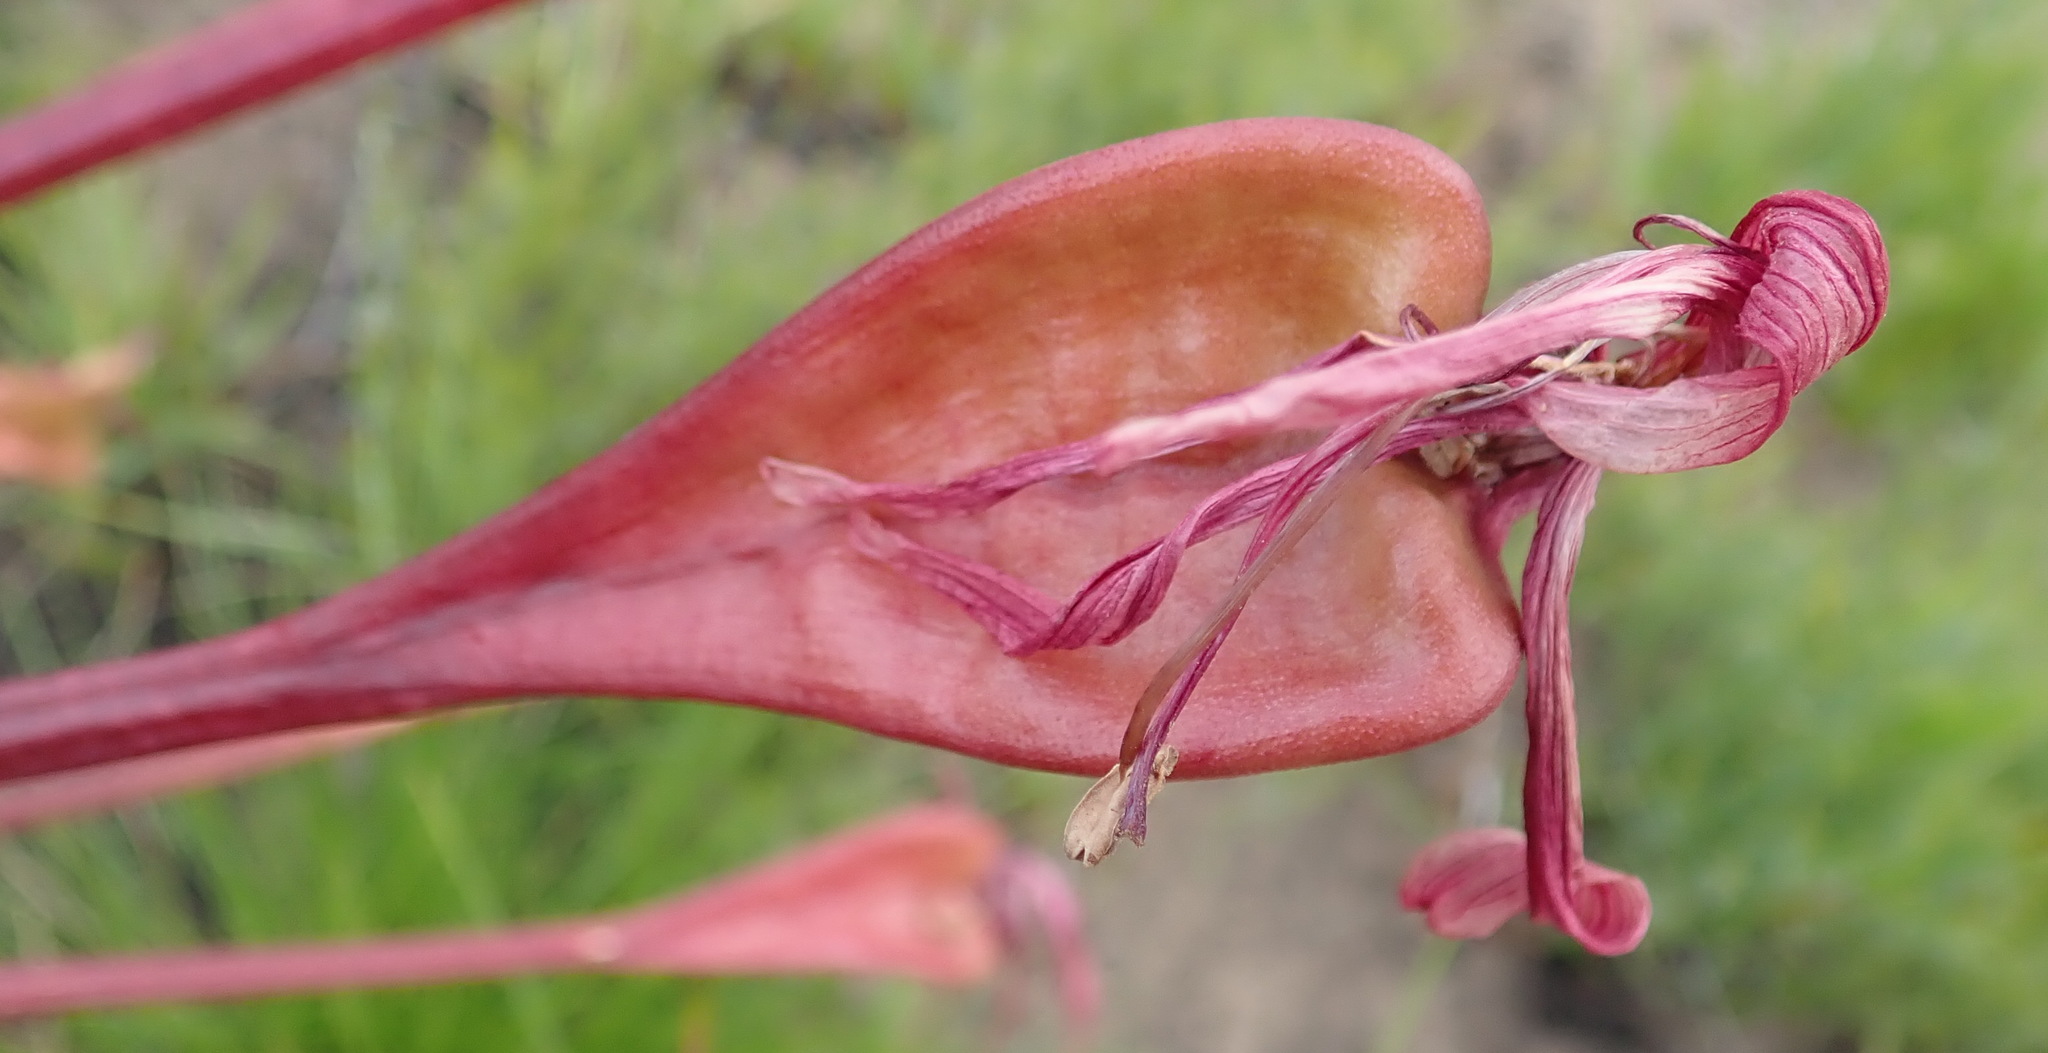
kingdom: Plantae
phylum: Tracheophyta
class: Liliopsida
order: Asparagales
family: Amaryllidaceae
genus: Brunsvigia
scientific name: Brunsvigia orientalis
